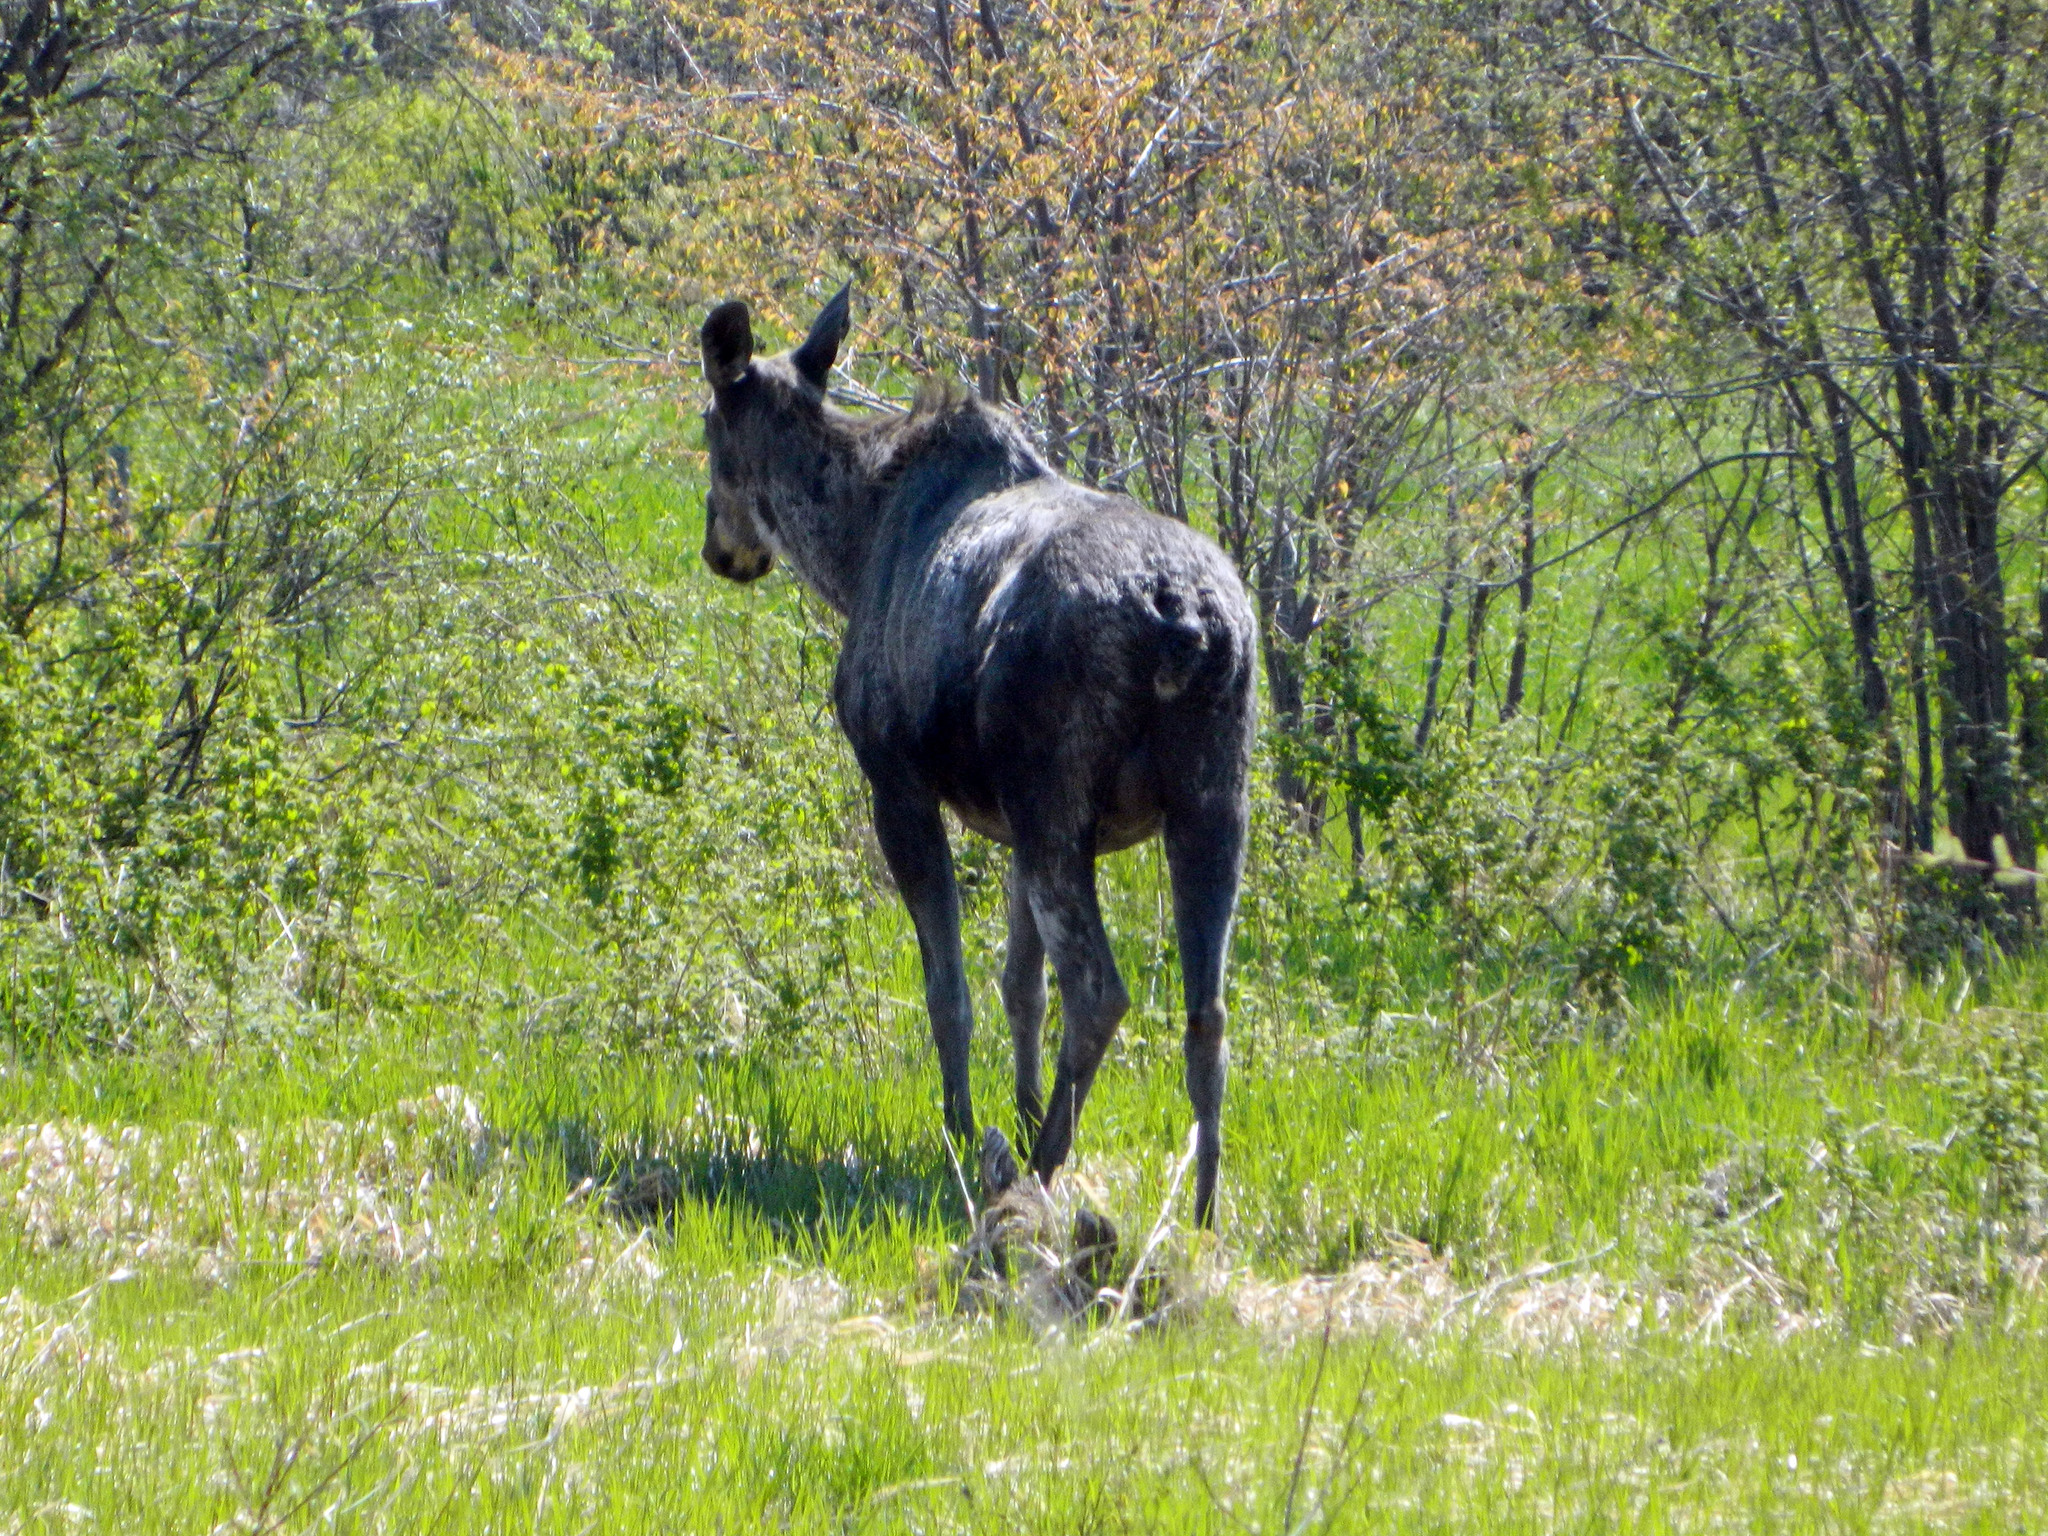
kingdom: Animalia
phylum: Chordata
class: Mammalia
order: Artiodactyla
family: Cervidae
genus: Alces
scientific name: Alces alces
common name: Moose
